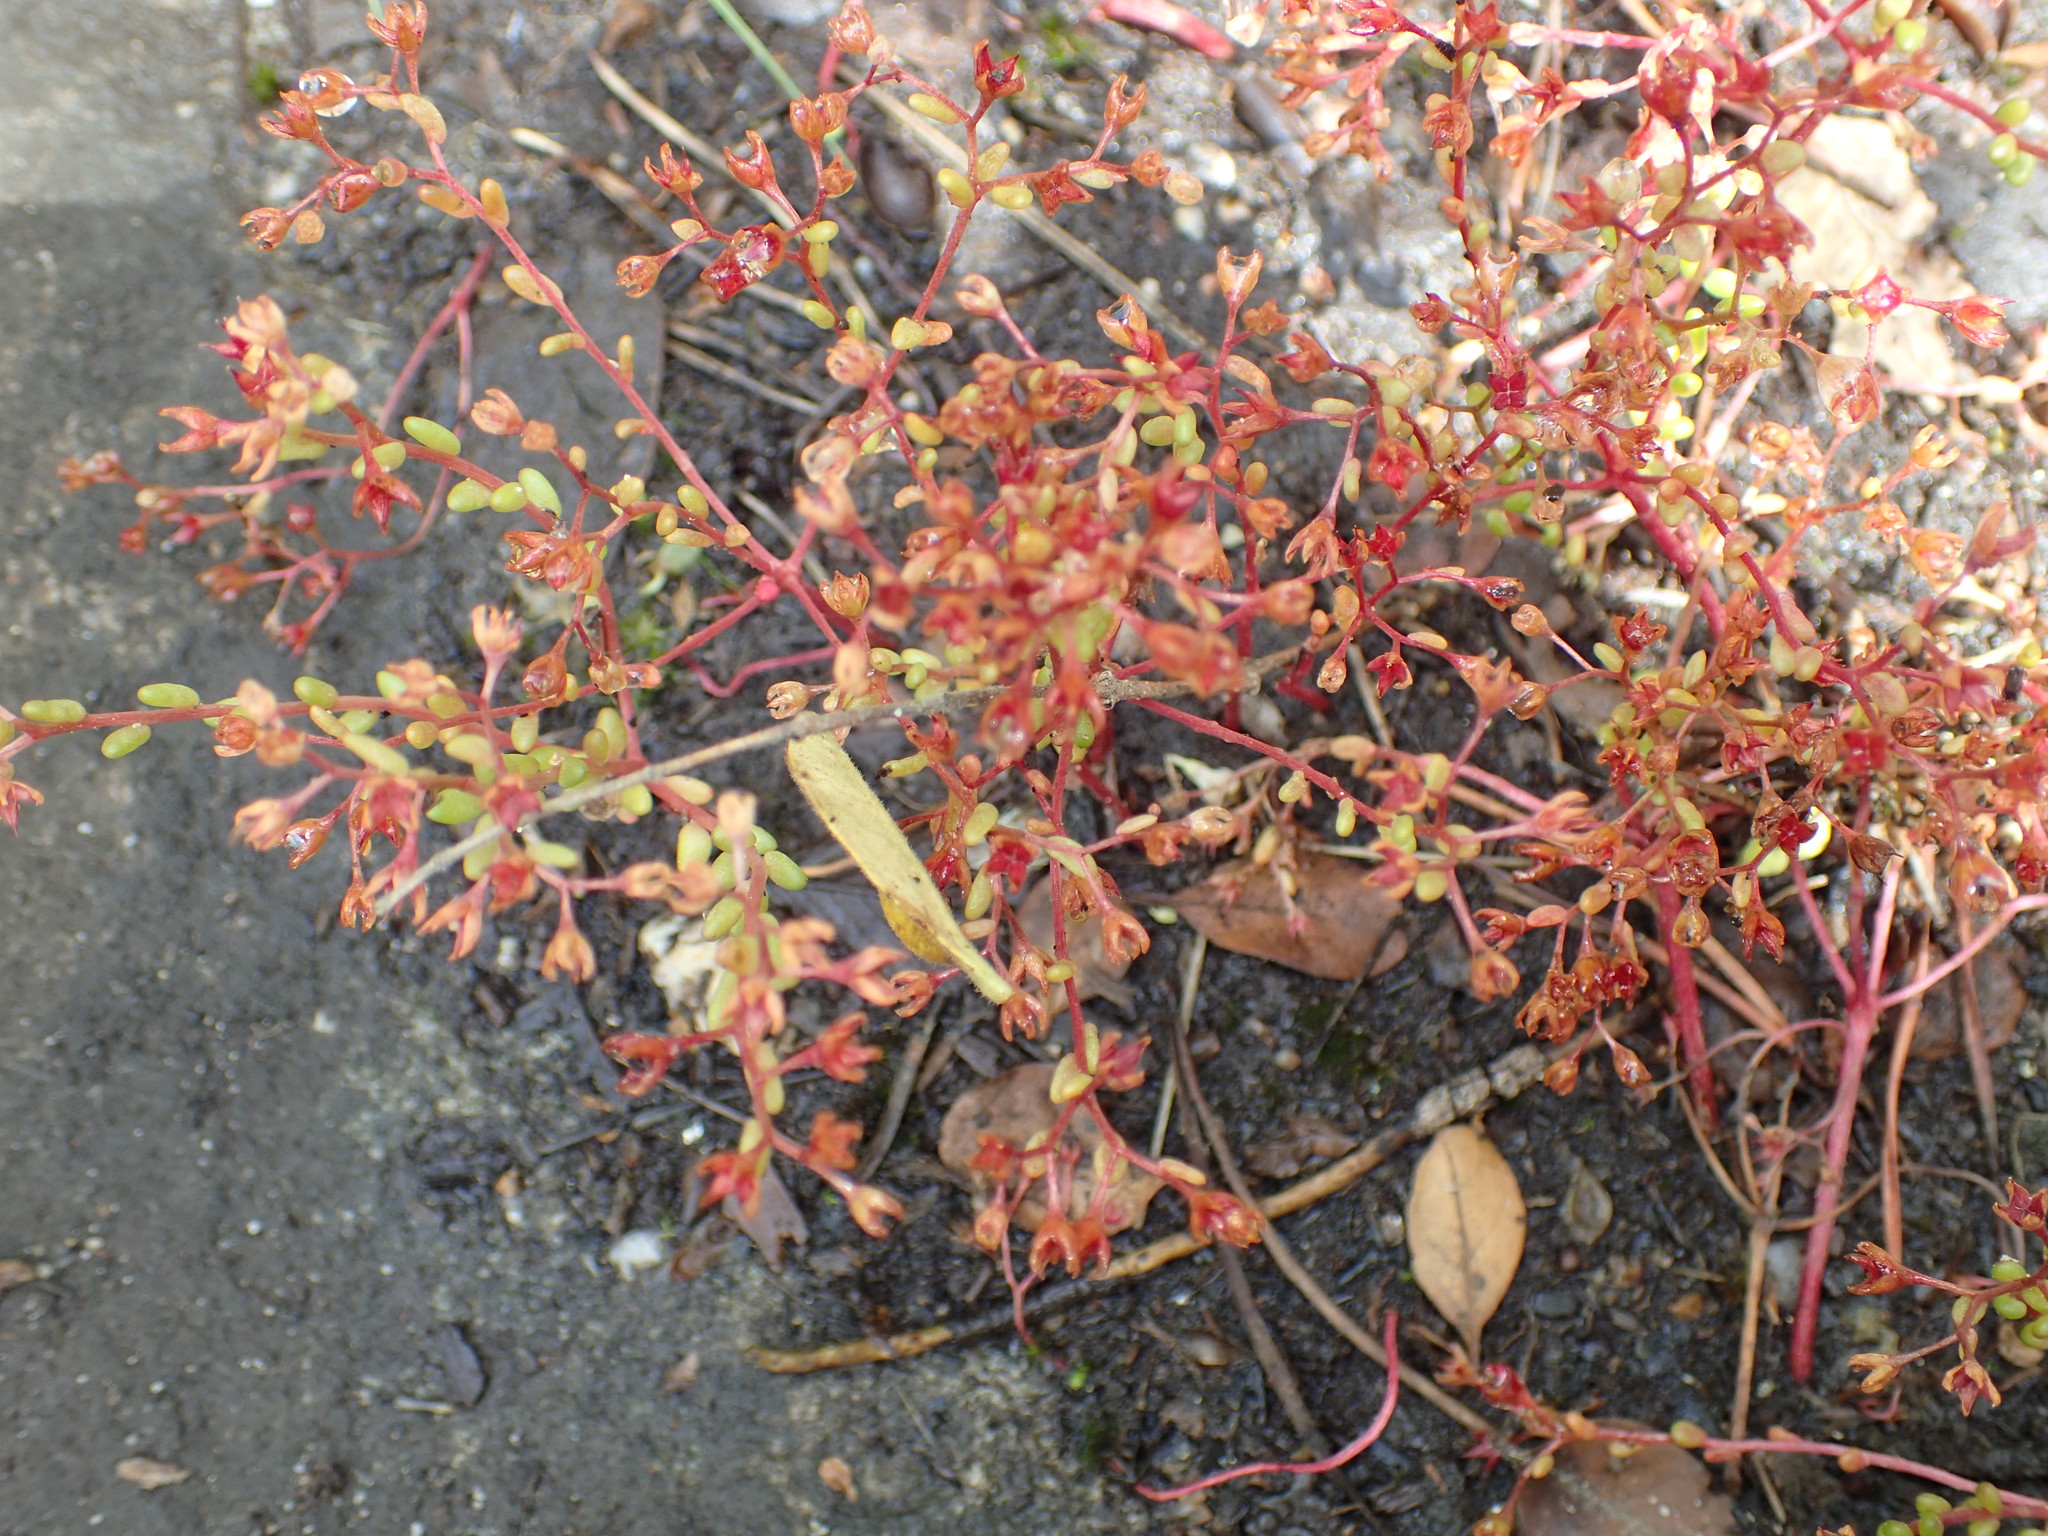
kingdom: Plantae
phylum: Tracheophyta
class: Magnoliopsida
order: Saxifragales
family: Crassulaceae
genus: Sedum
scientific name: Sedum smallii
